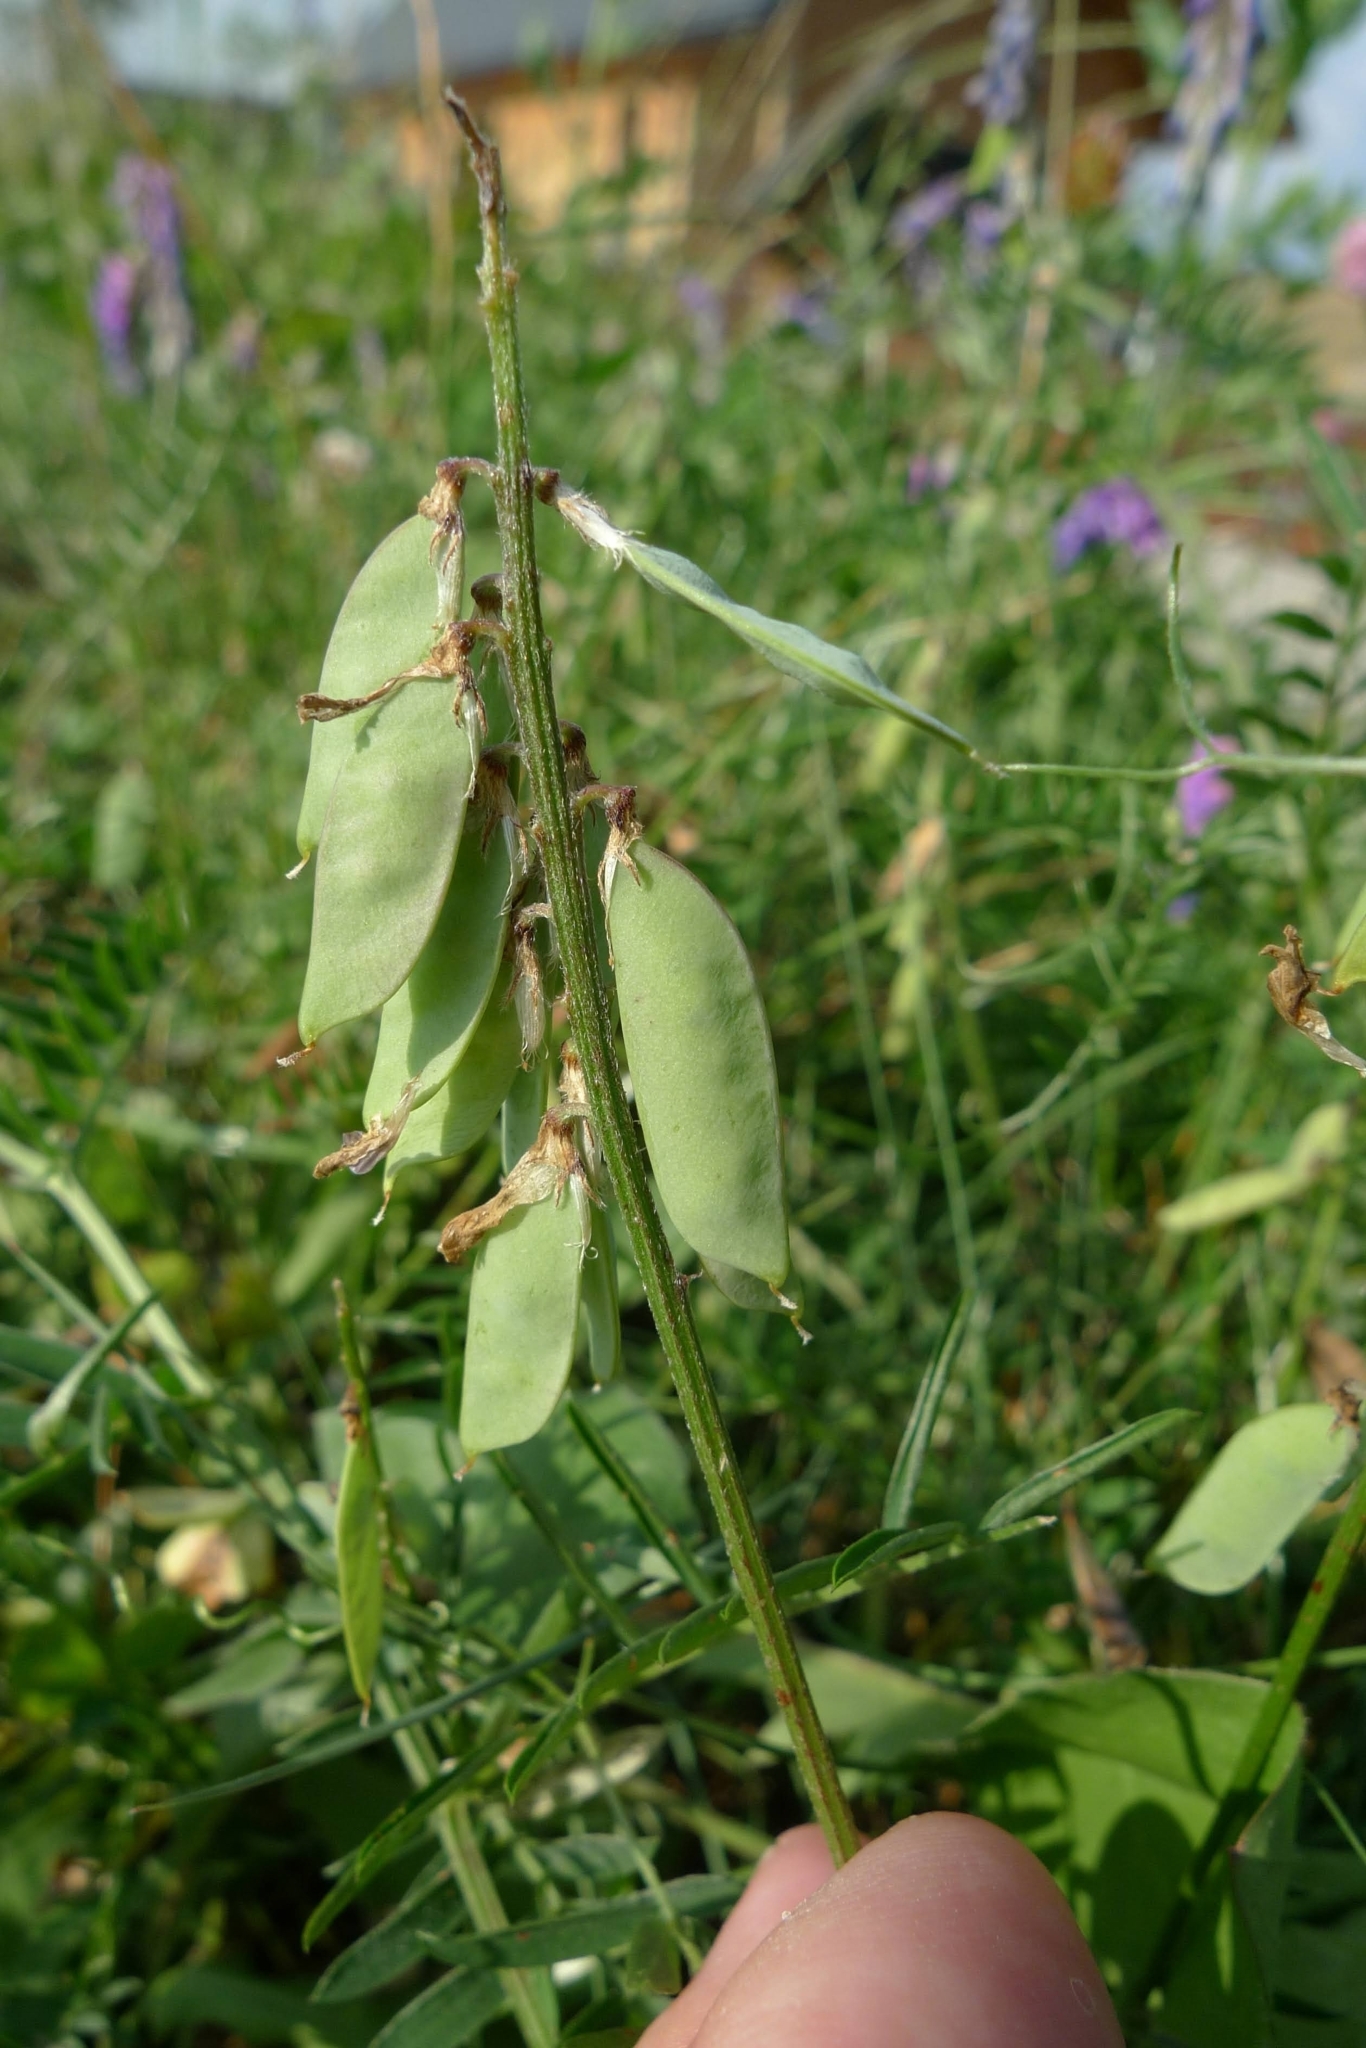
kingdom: Plantae
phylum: Tracheophyta
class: Magnoliopsida
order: Fabales
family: Fabaceae
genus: Vicia
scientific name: Vicia cracca
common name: Bird vetch
